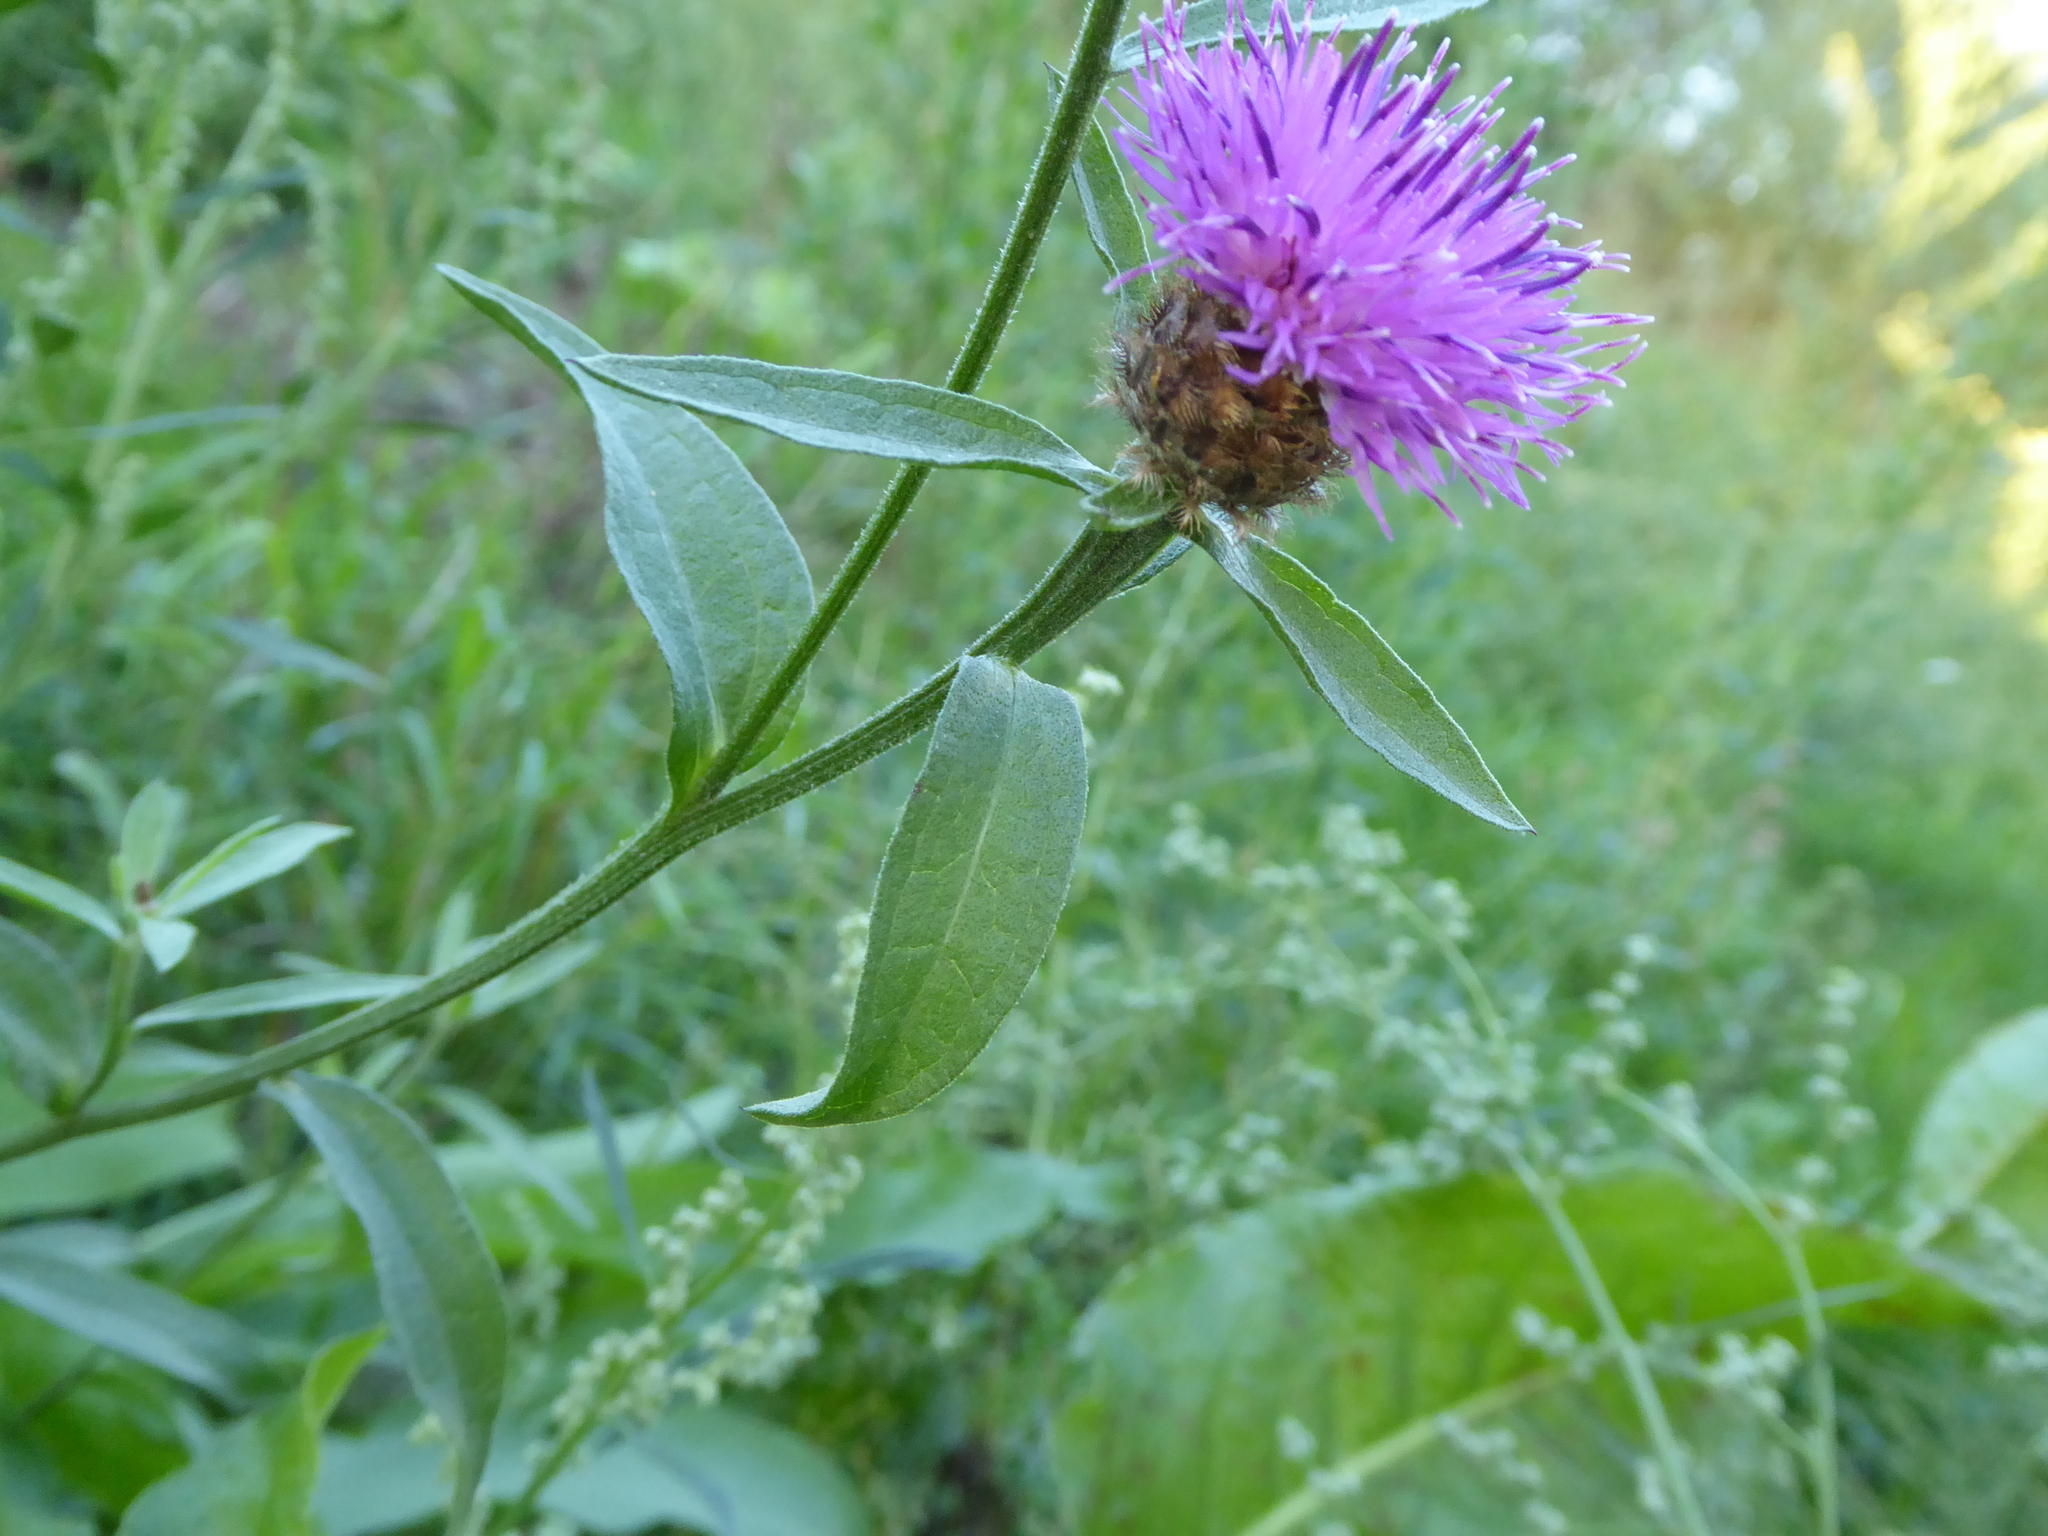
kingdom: Plantae
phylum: Tracheophyta
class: Magnoliopsida
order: Asterales
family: Asteraceae
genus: Centaurea
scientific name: Centaurea nigra
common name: Lesser knapweed
